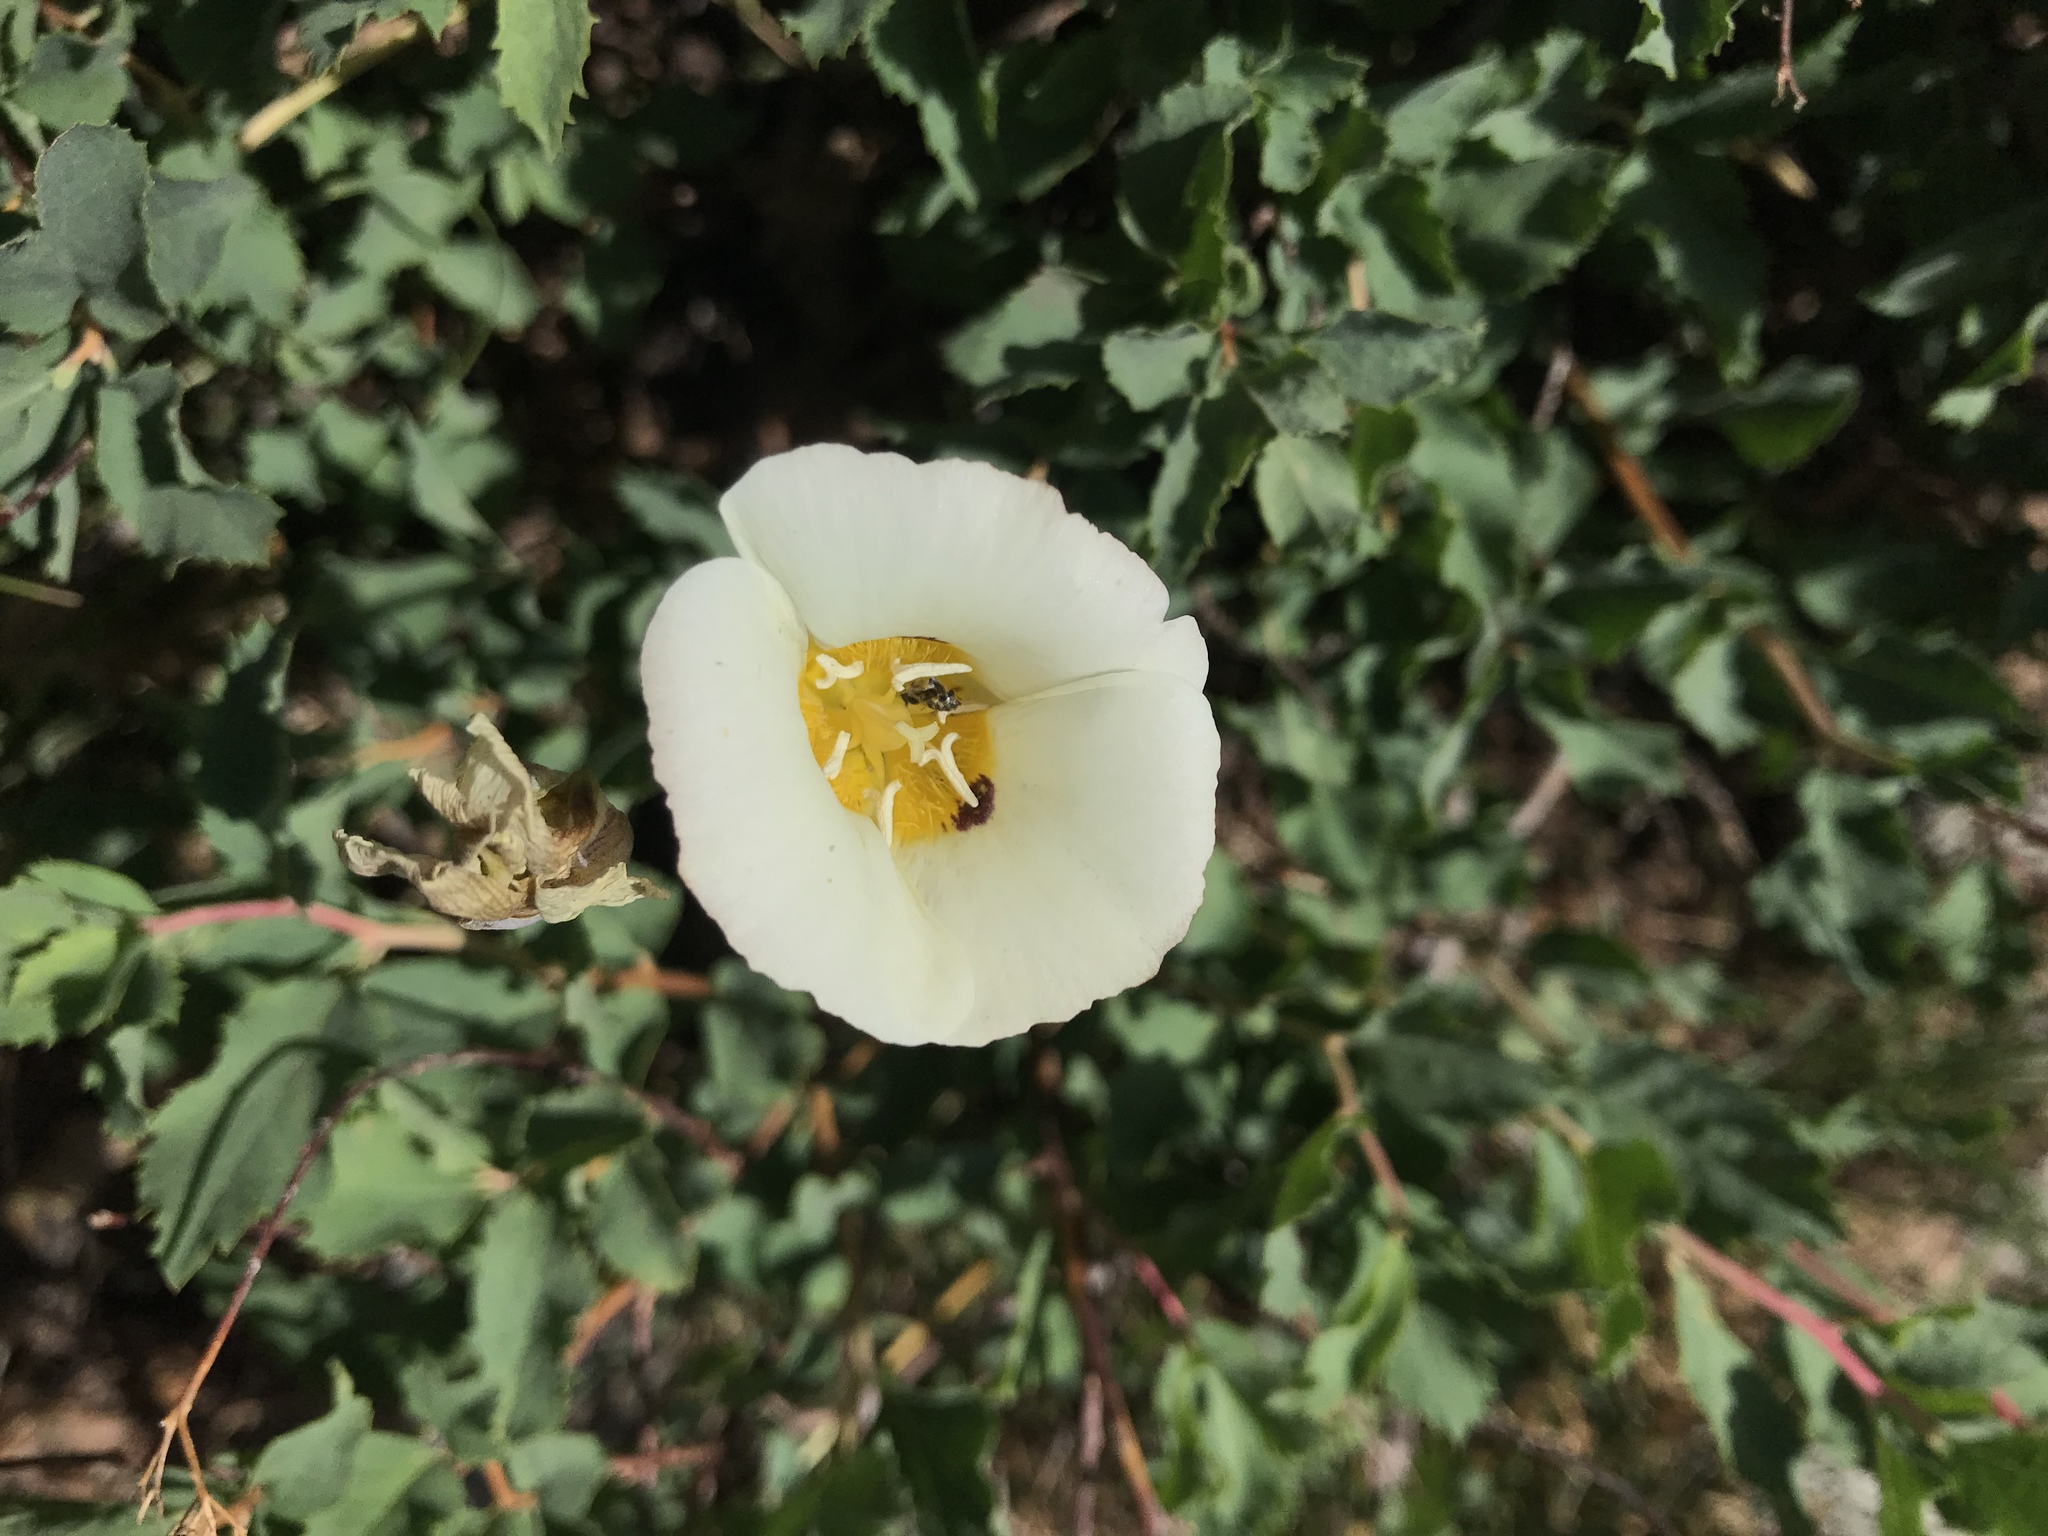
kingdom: Plantae
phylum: Tracheophyta
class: Liliopsida
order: Liliales
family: Liliaceae
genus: Calochortus
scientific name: Calochortus leichtlinii
